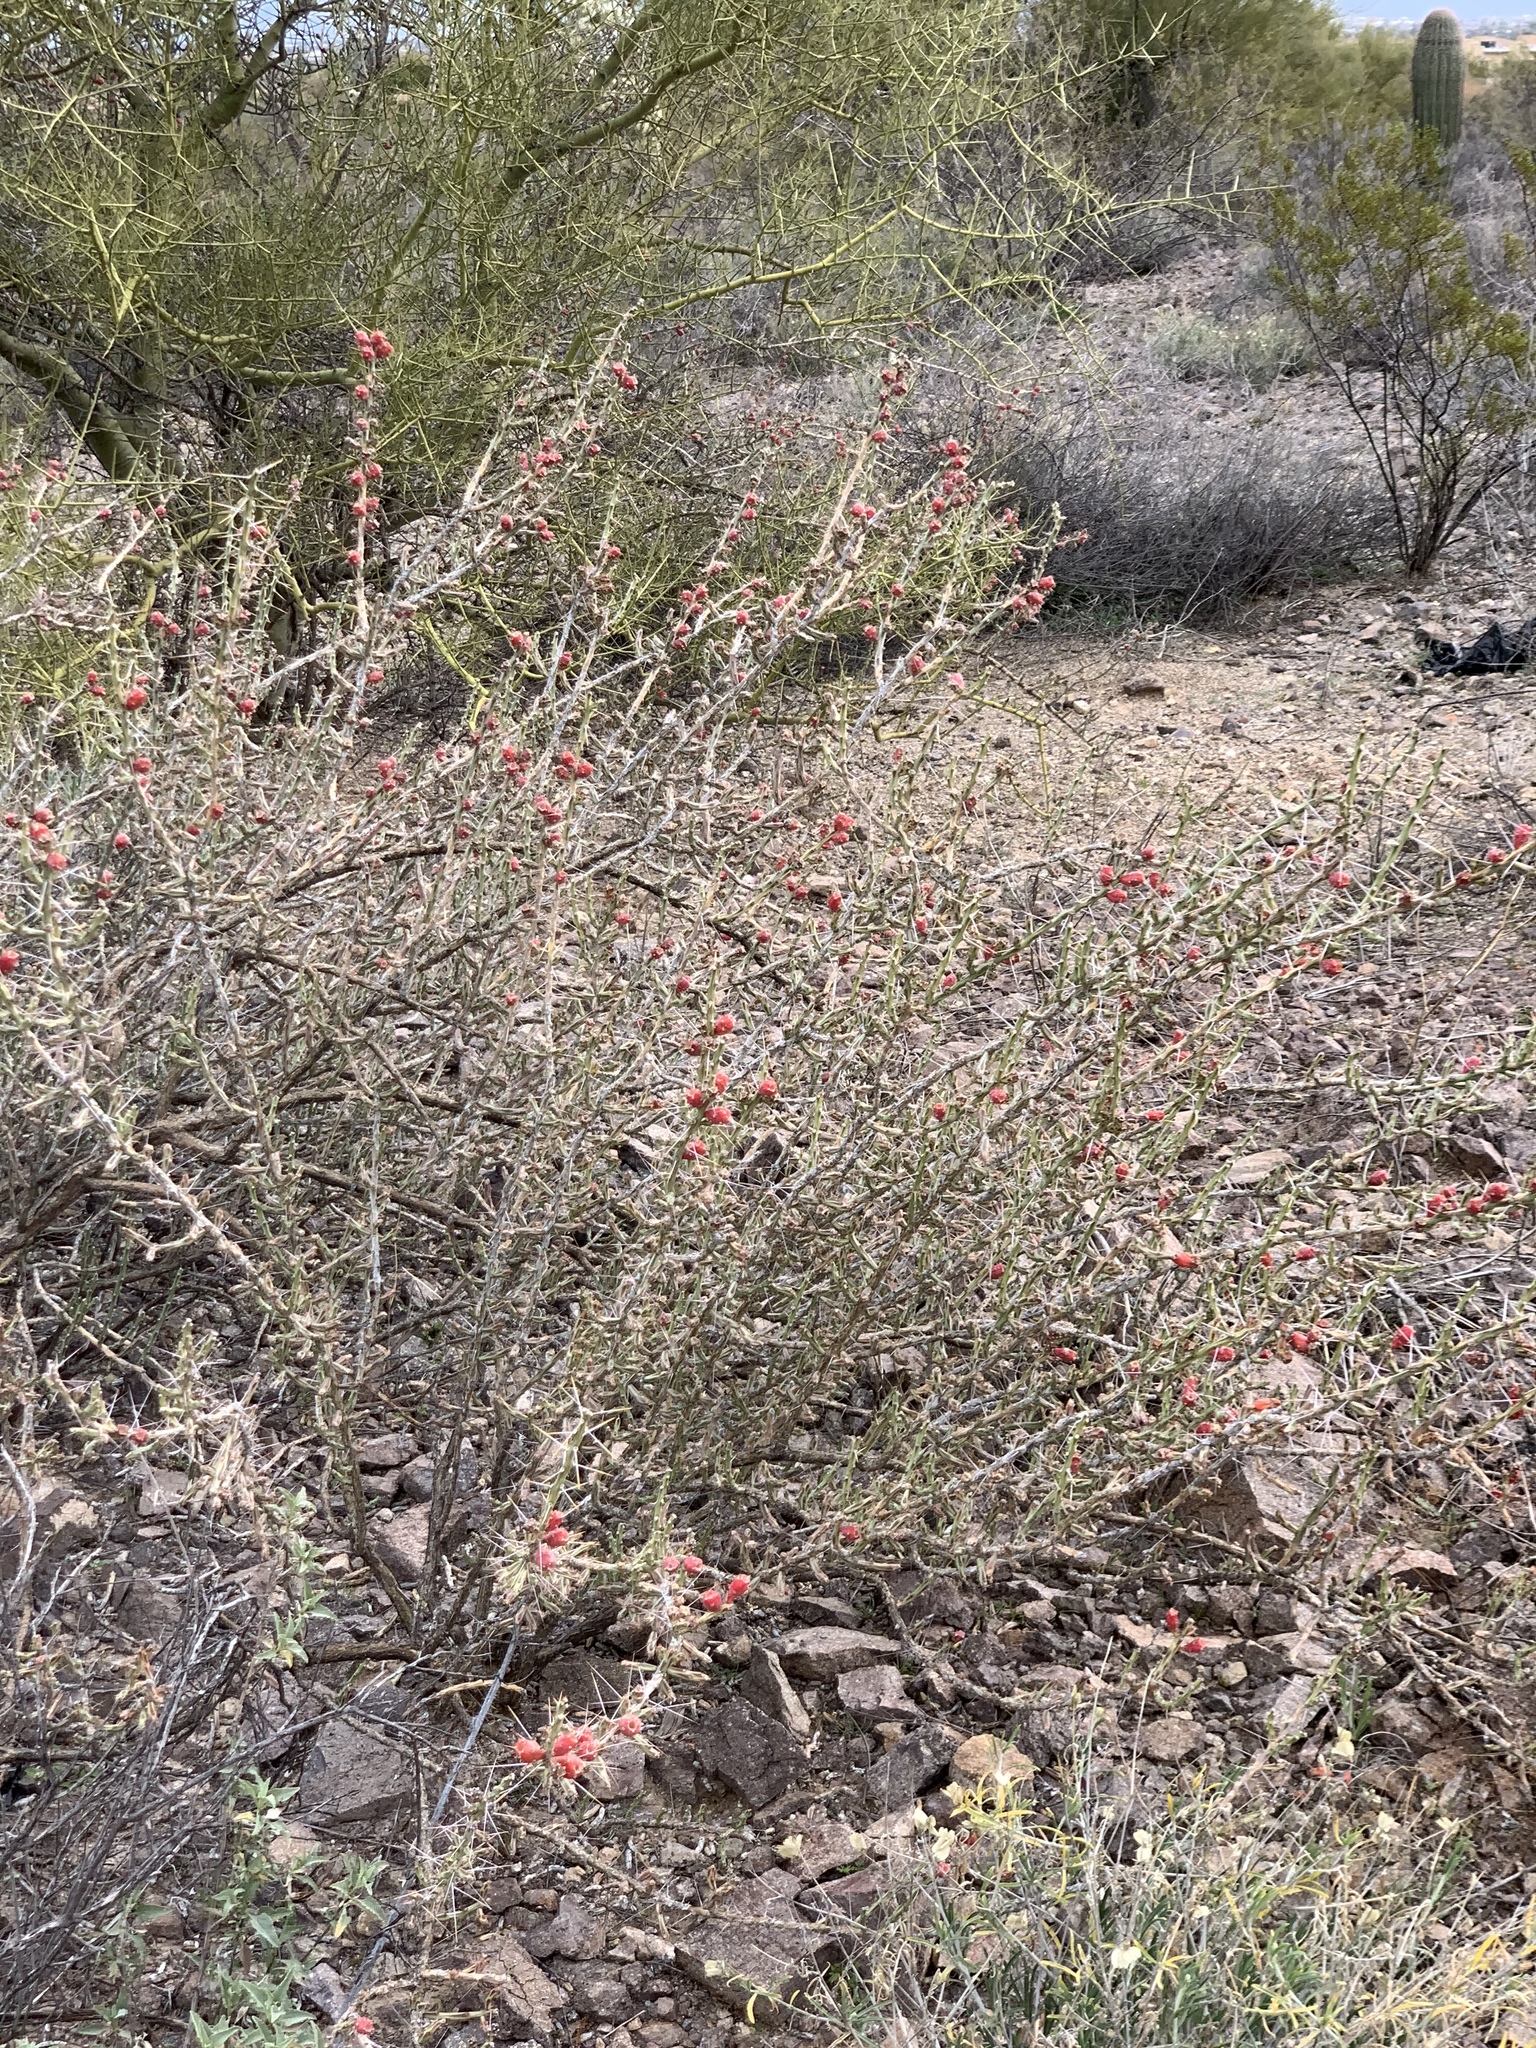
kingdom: Plantae
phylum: Tracheophyta
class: Magnoliopsida
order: Caryophyllales
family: Cactaceae
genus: Cylindropuntia
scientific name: Cylindropuntia leptocaulis
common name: Christmas cactus
